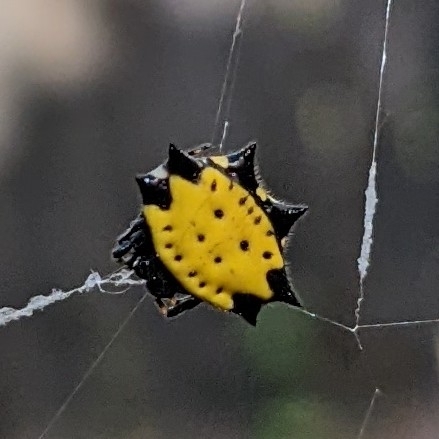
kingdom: Animalia
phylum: Arthropoda
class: Arachnida
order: Araneae
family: Araneidae
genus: Gasteracantha
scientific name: Gasteracantha cancriformis
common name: Orb weavers
